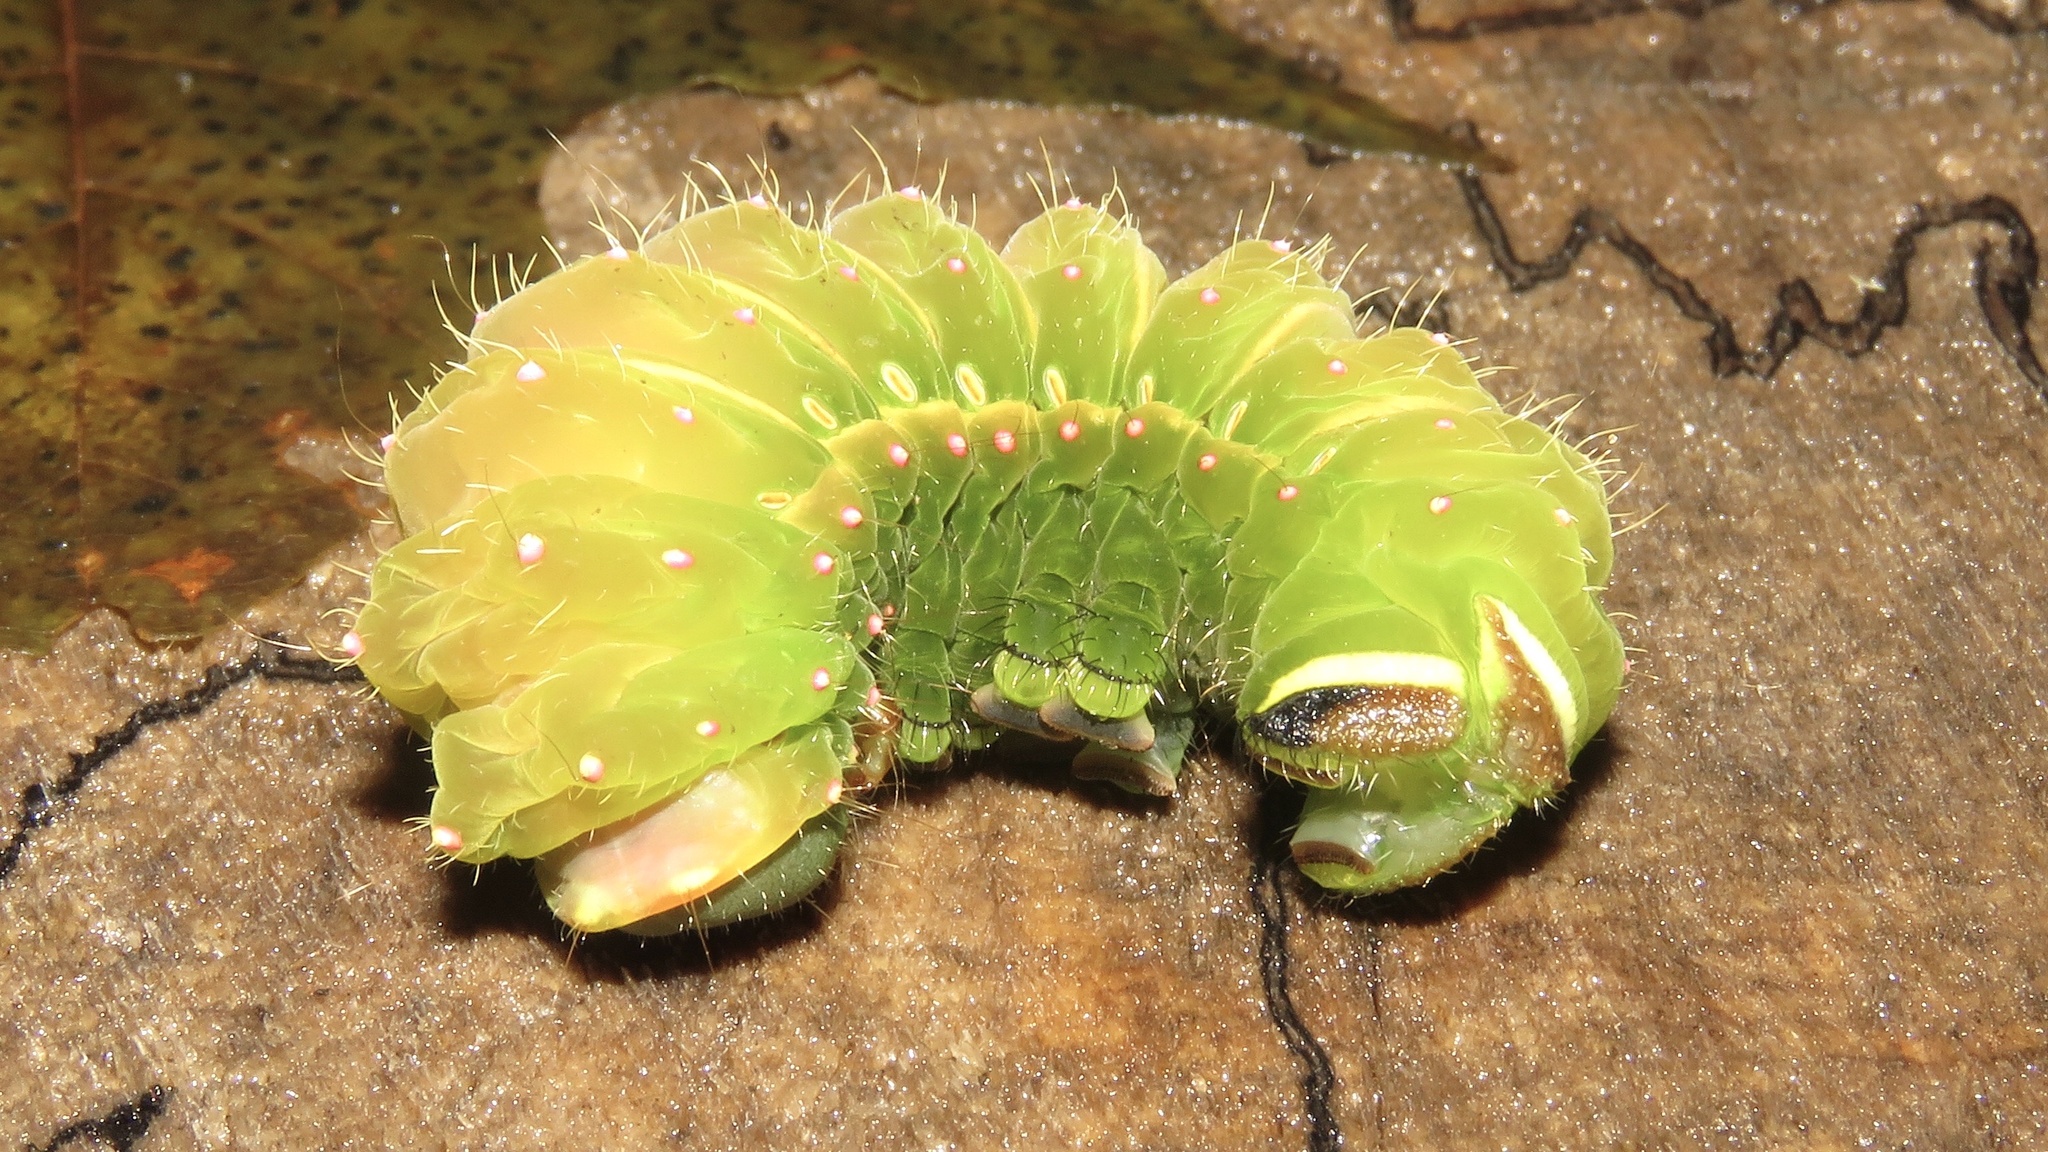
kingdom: Animalia
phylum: Arthropoda
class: Insecta
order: Lepidoptera
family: Saturniidae
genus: Actias
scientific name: Actias luna
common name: Luna moth
